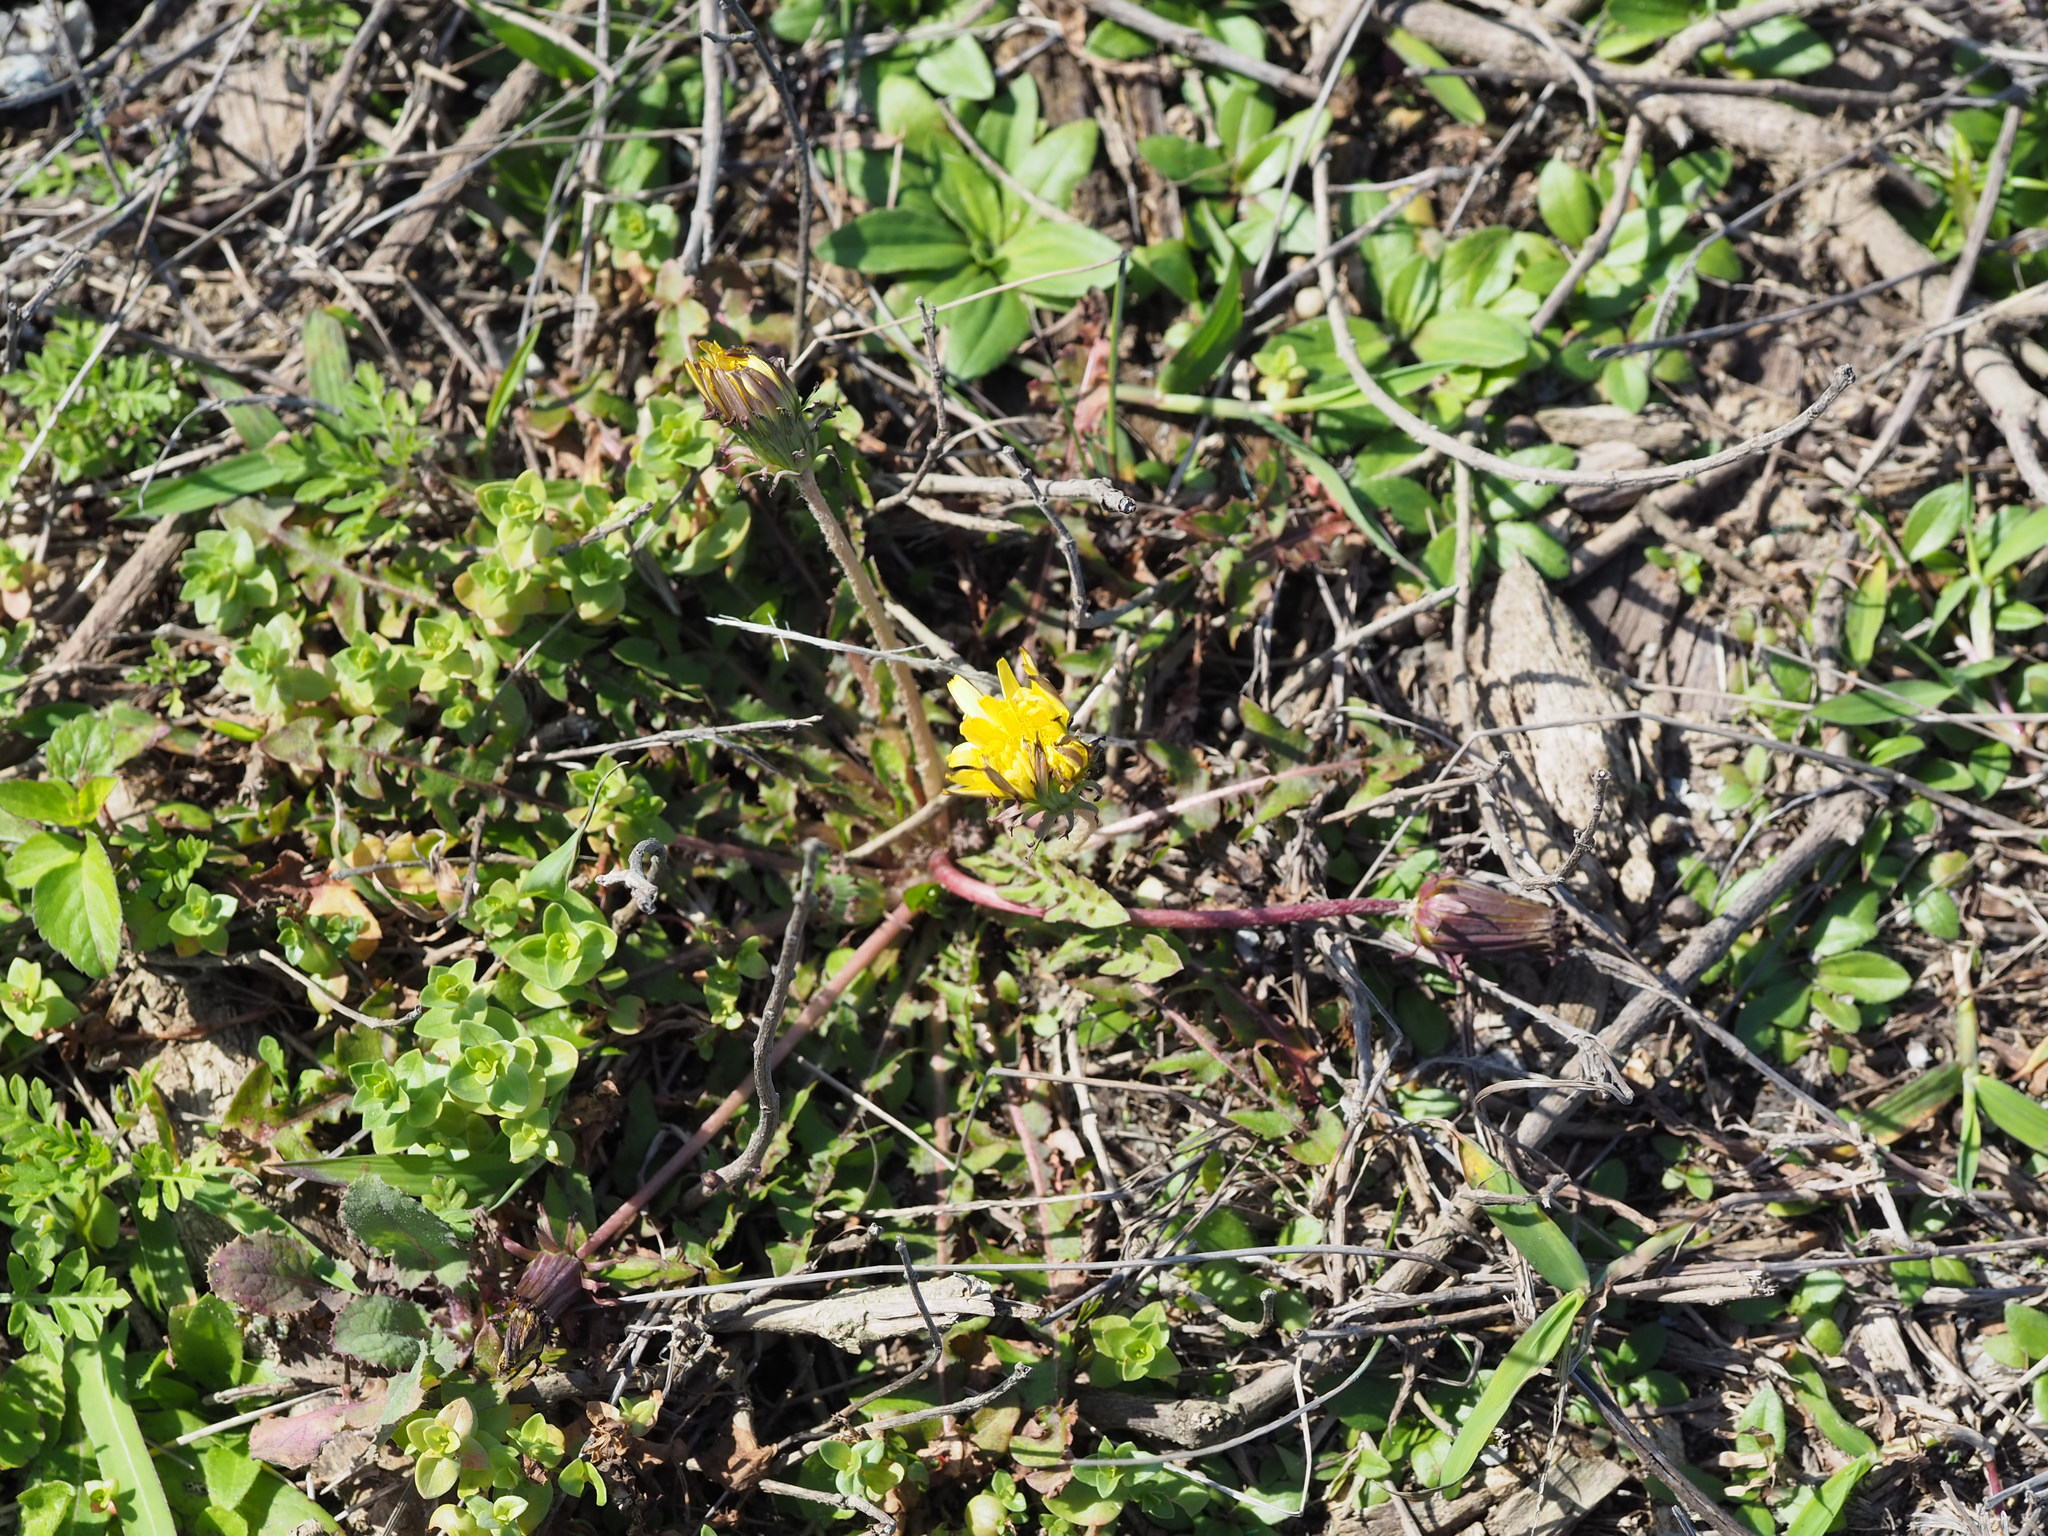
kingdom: Plantae
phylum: Tracheophyta
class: Magnoliopsida
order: Asterales
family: Asteraceae
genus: Taraxacum
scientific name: Taraxacum formosanum
